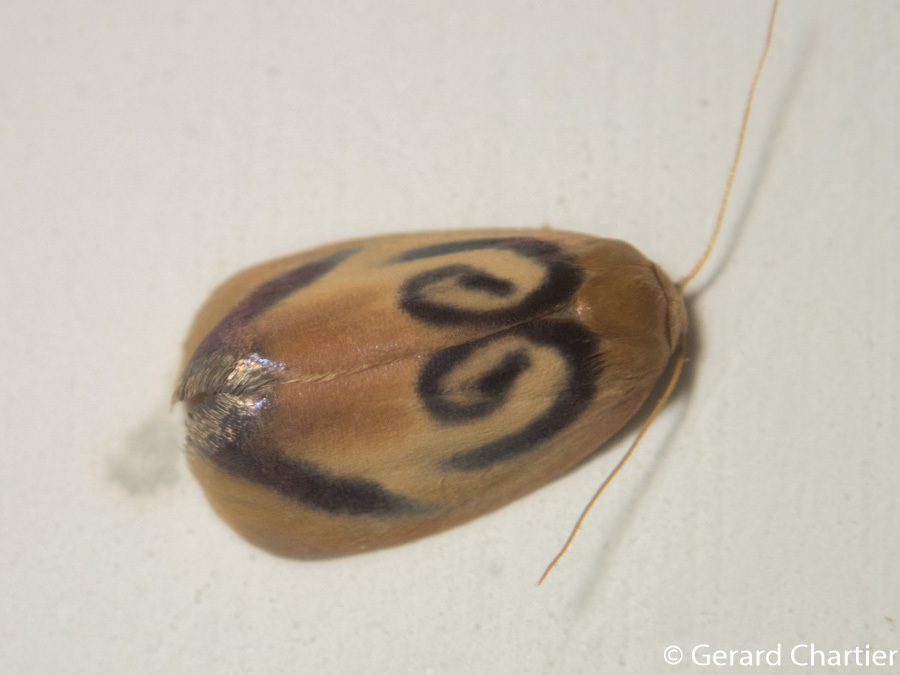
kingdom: Animalia
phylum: Arthropoda
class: Insecta
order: Lepidoptera
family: Erebidae
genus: Trischalis
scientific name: Trischalis subaurana
